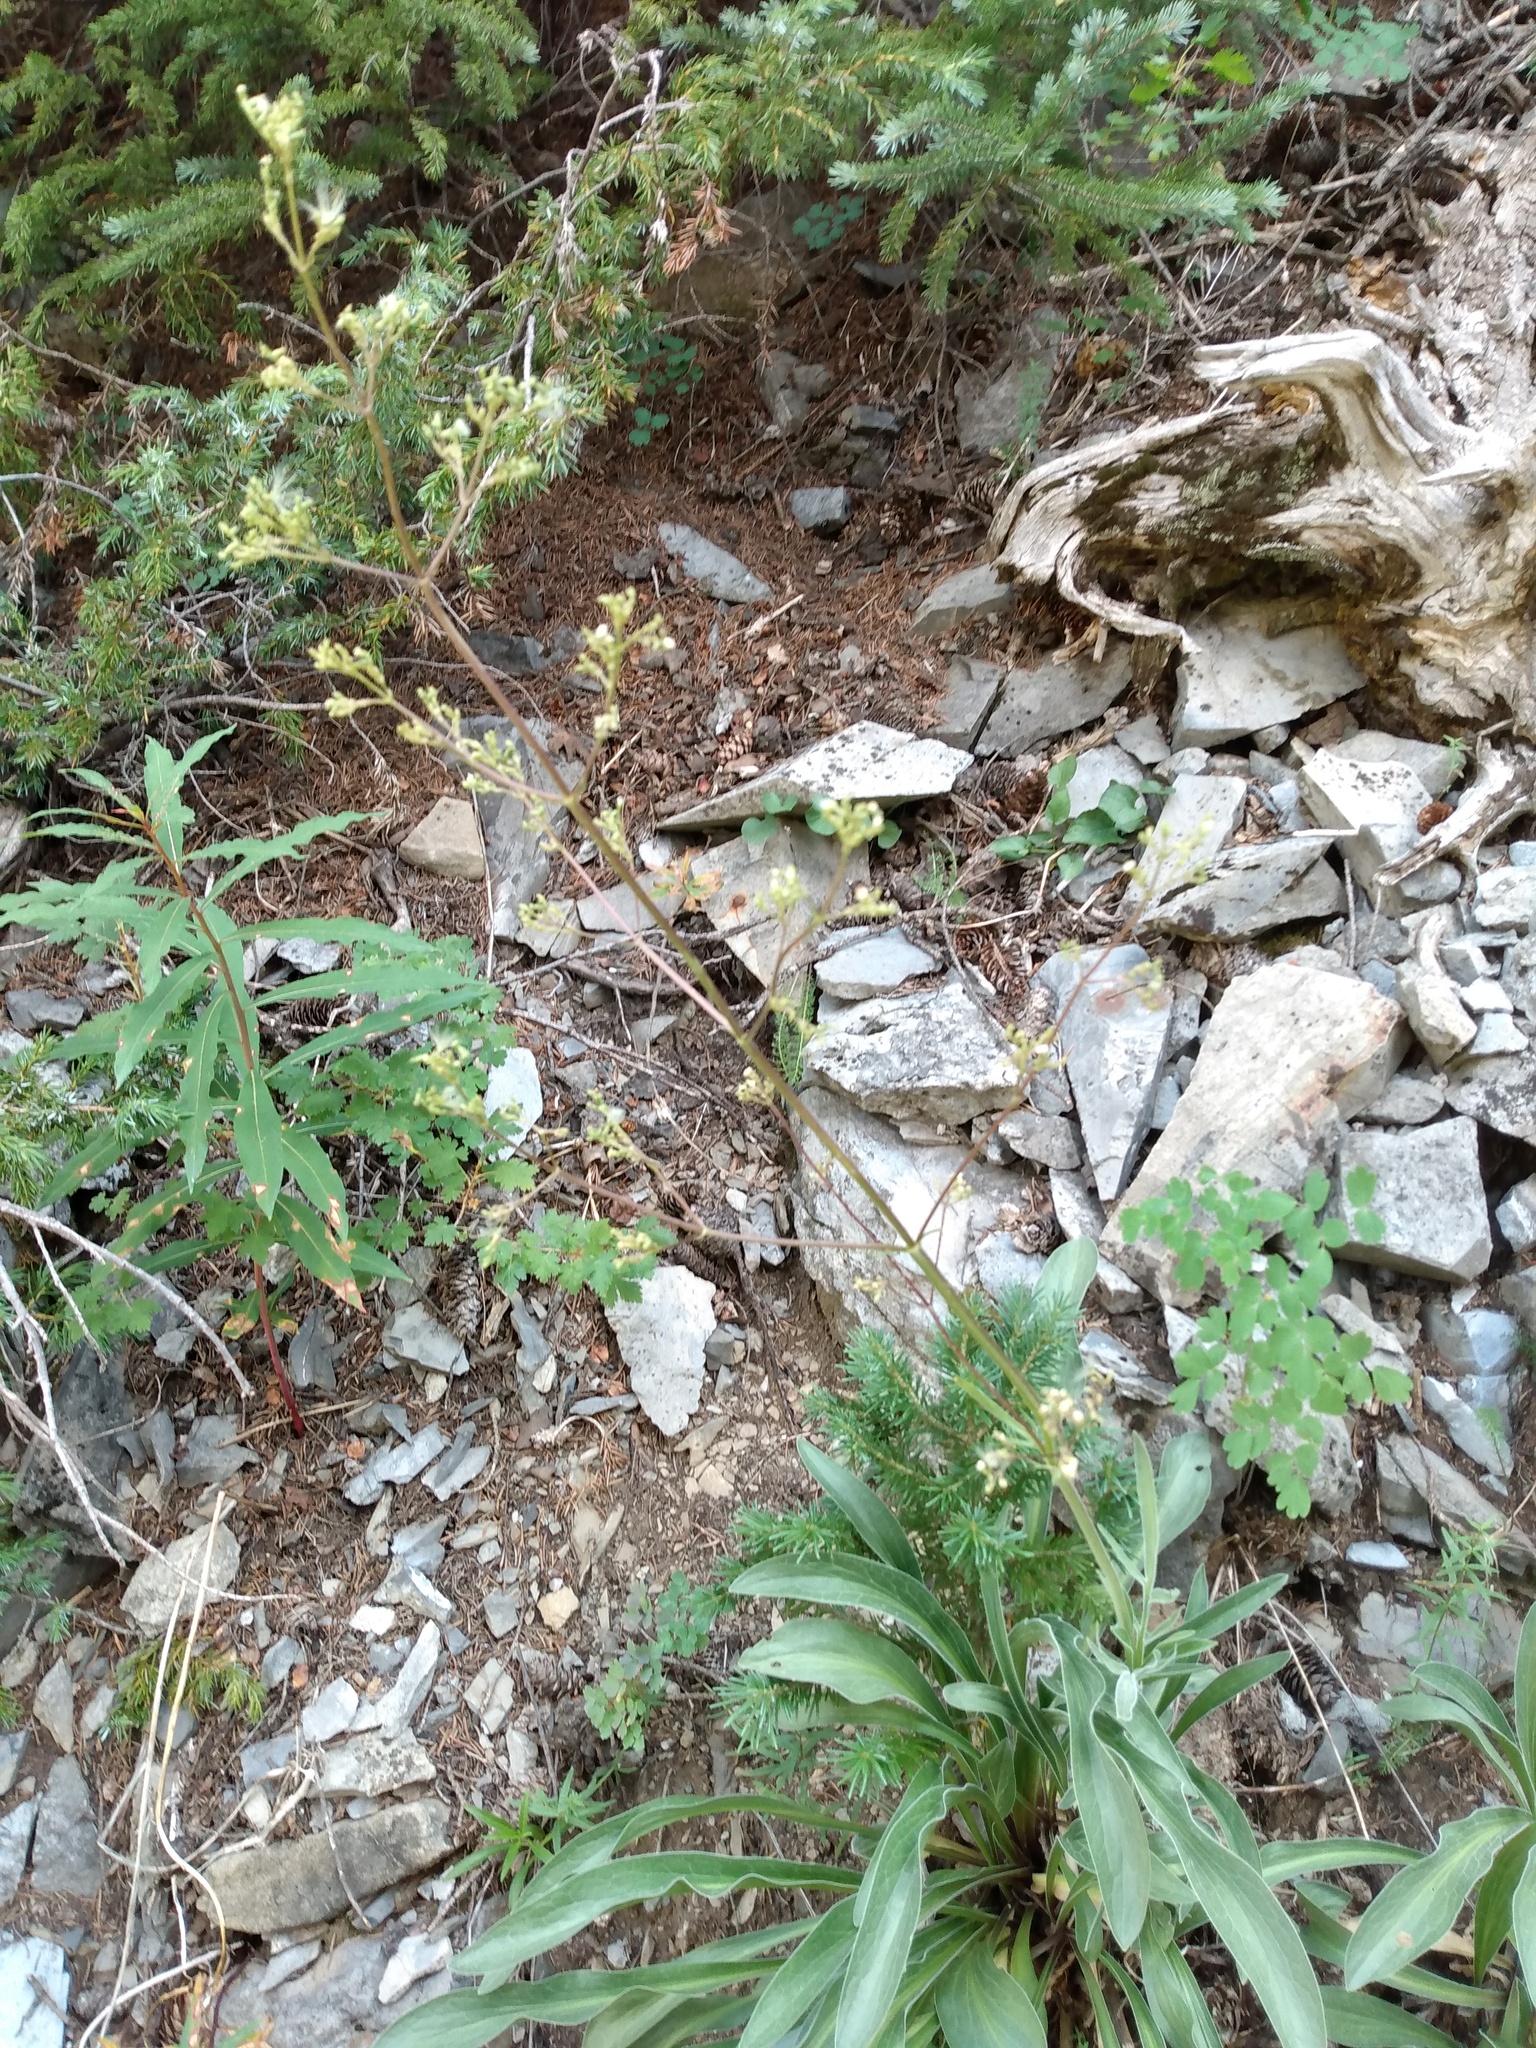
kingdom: Plantae
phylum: Tracheophyta
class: Magnoliopsida
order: Dipsacales
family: Caprifoliaceae
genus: Valeriana
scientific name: Valeriana edulis
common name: Taproot valerian
